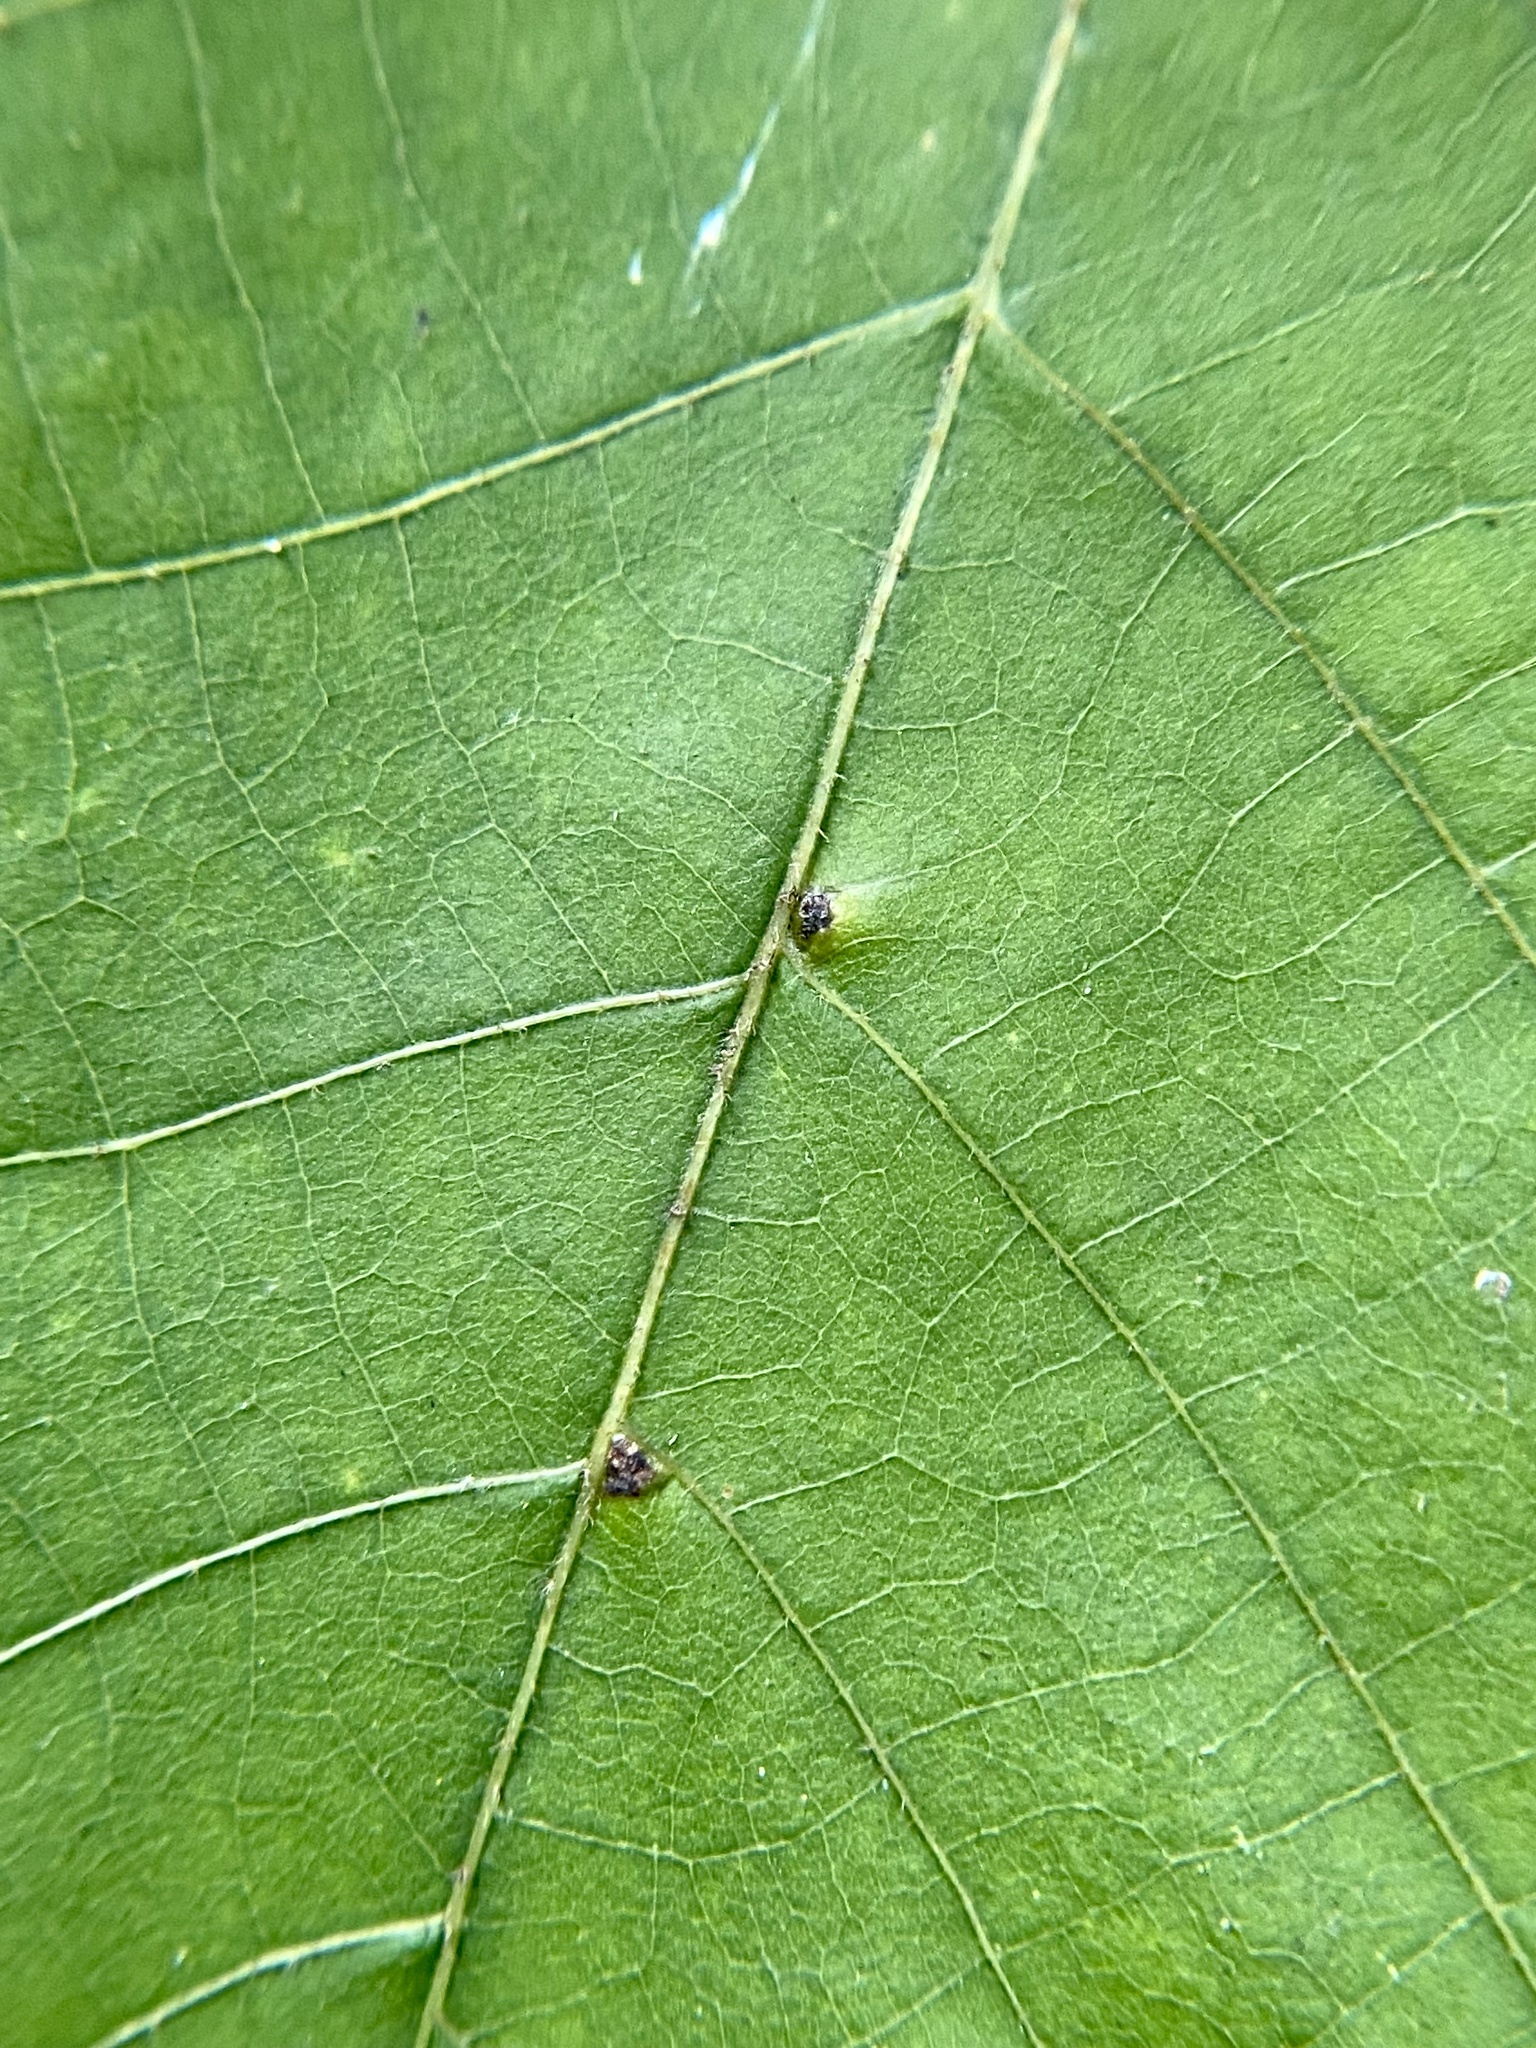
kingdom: Animalia
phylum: Arthropoda
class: Arachnida
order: Trombidiformes
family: Eriophyidae
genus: Aceria
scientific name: Aceria
